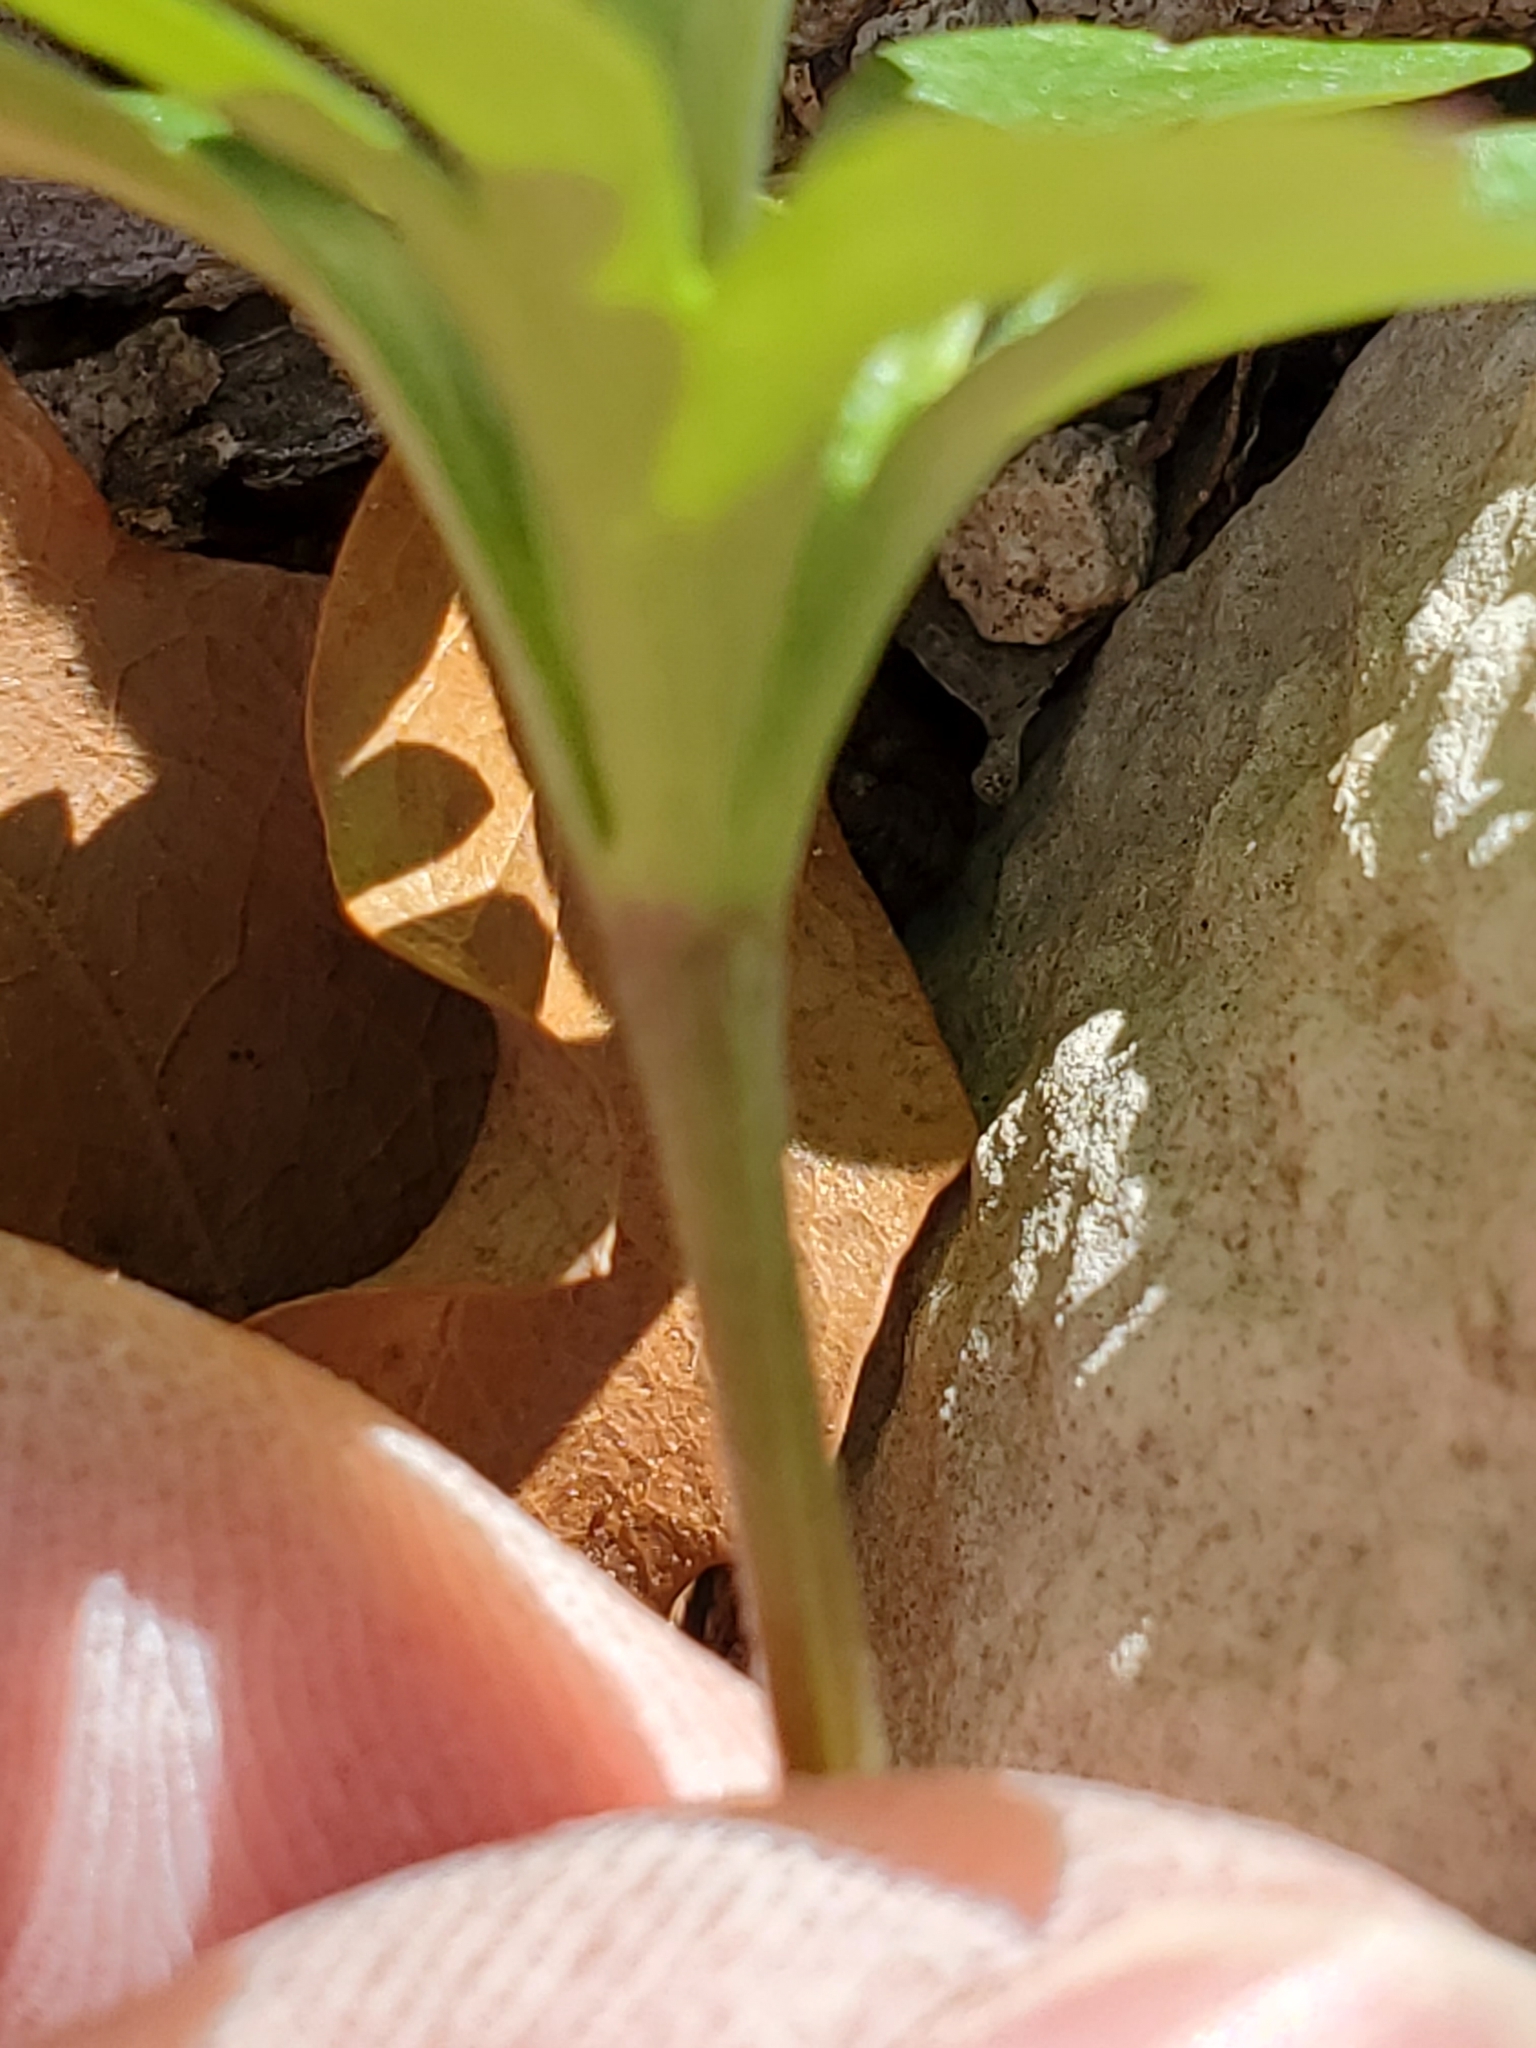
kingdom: Plantae
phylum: Tracheophyta
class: Magnoliopsida
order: Ranunculales
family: Ranunculaceae
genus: Anemone
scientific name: Anemone edwardsiana
